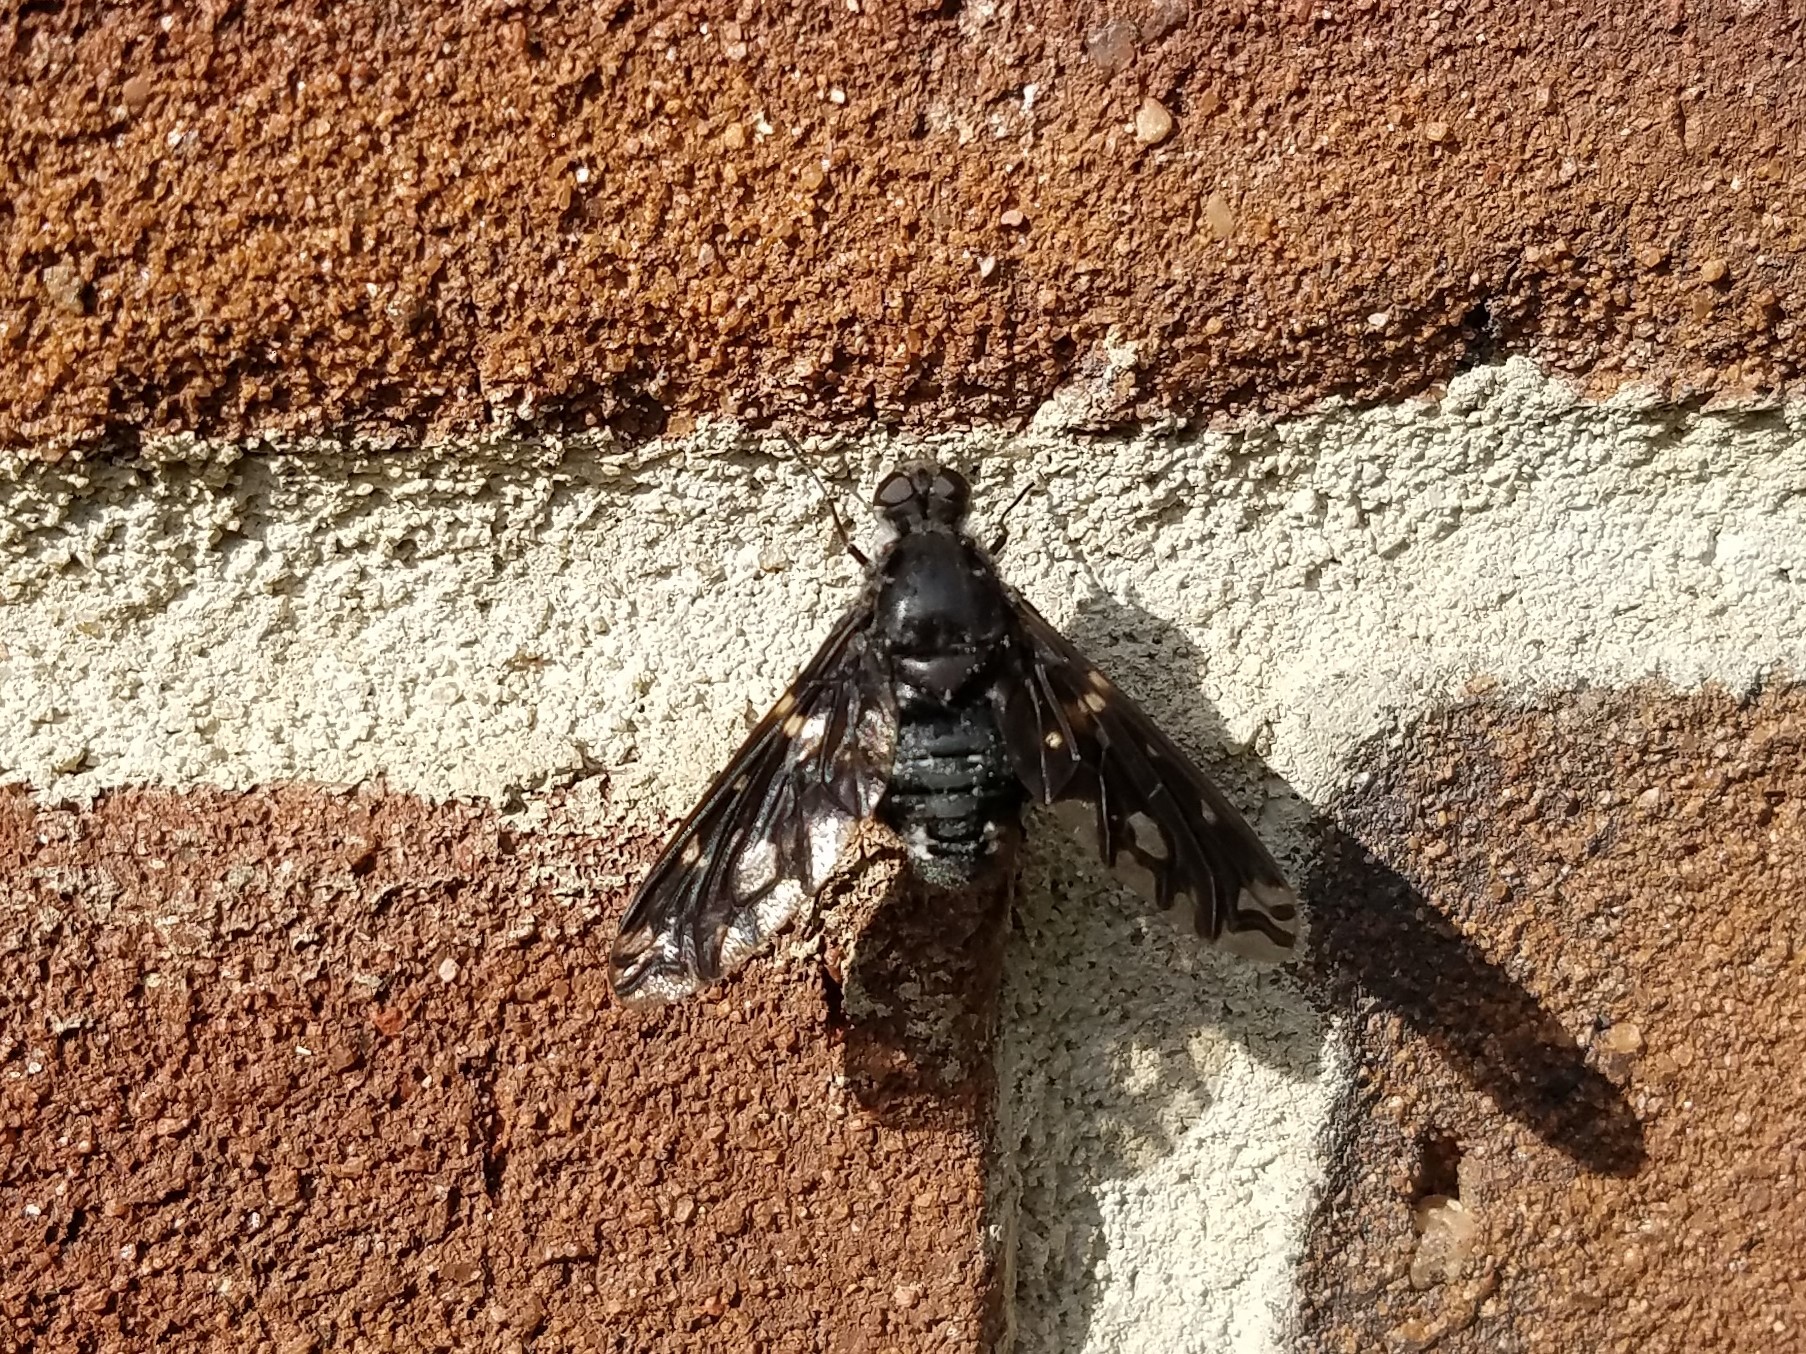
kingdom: Animalia
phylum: Arthropoda
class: Insecta
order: Diptera
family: Bombyliidae
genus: Xenox
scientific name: Xenox tigrinus
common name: Tiger bee fly
